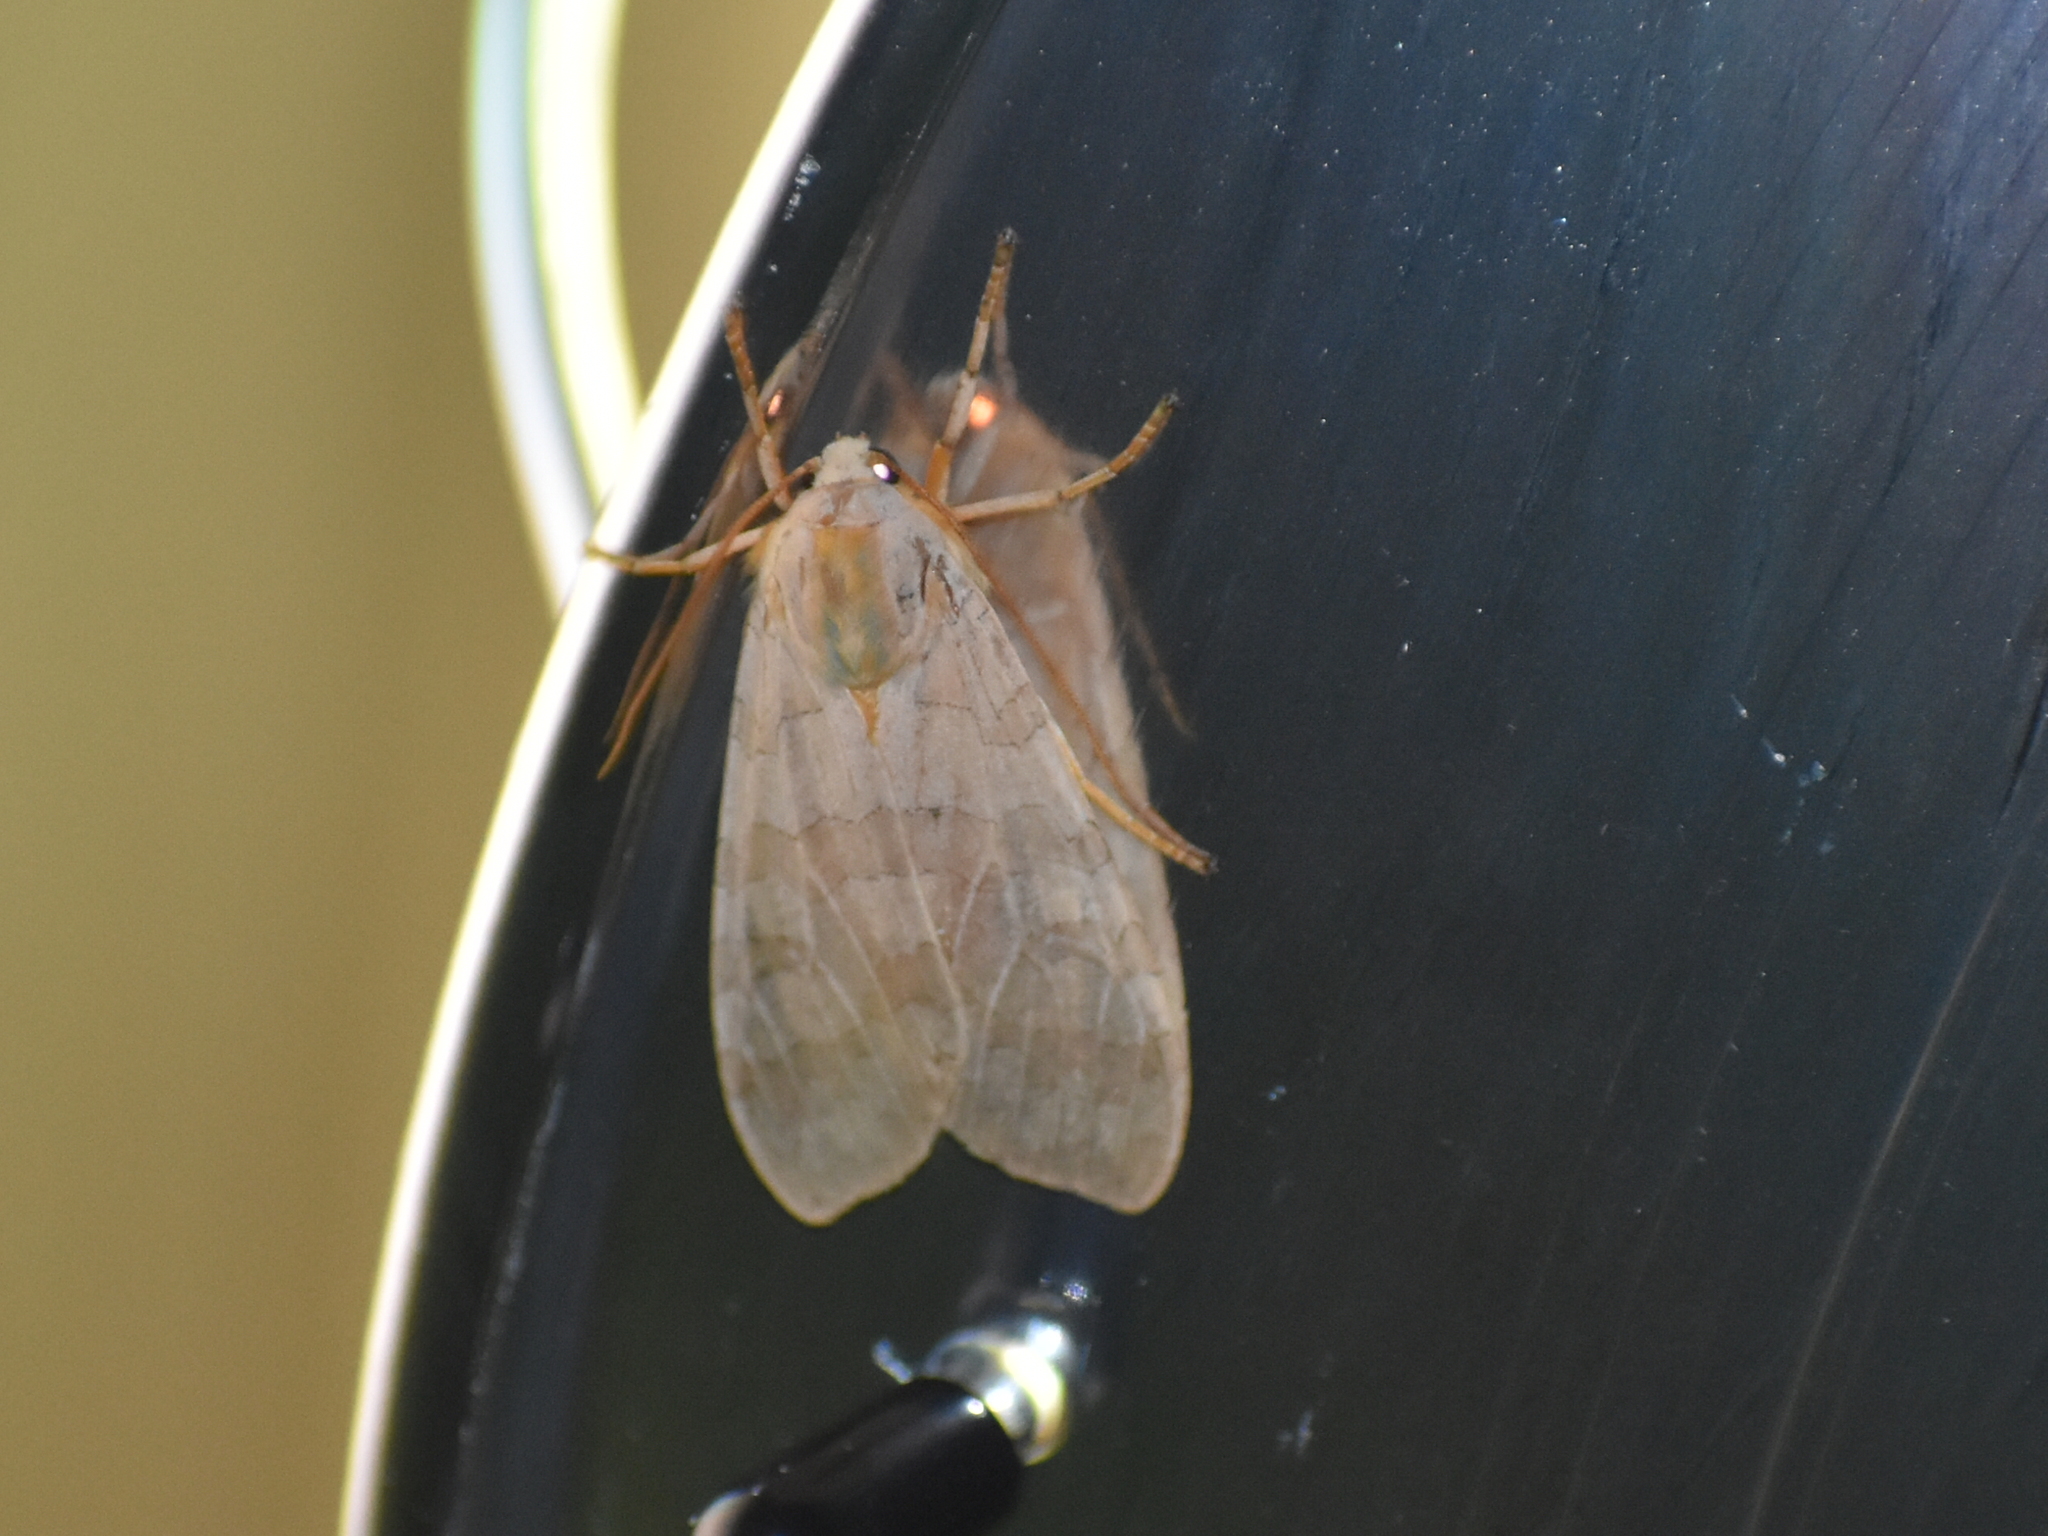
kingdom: Animalia
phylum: Arthropoda
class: Insecta
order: Lepidoptera
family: Erebidae
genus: Halysidota
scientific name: Halysidota
